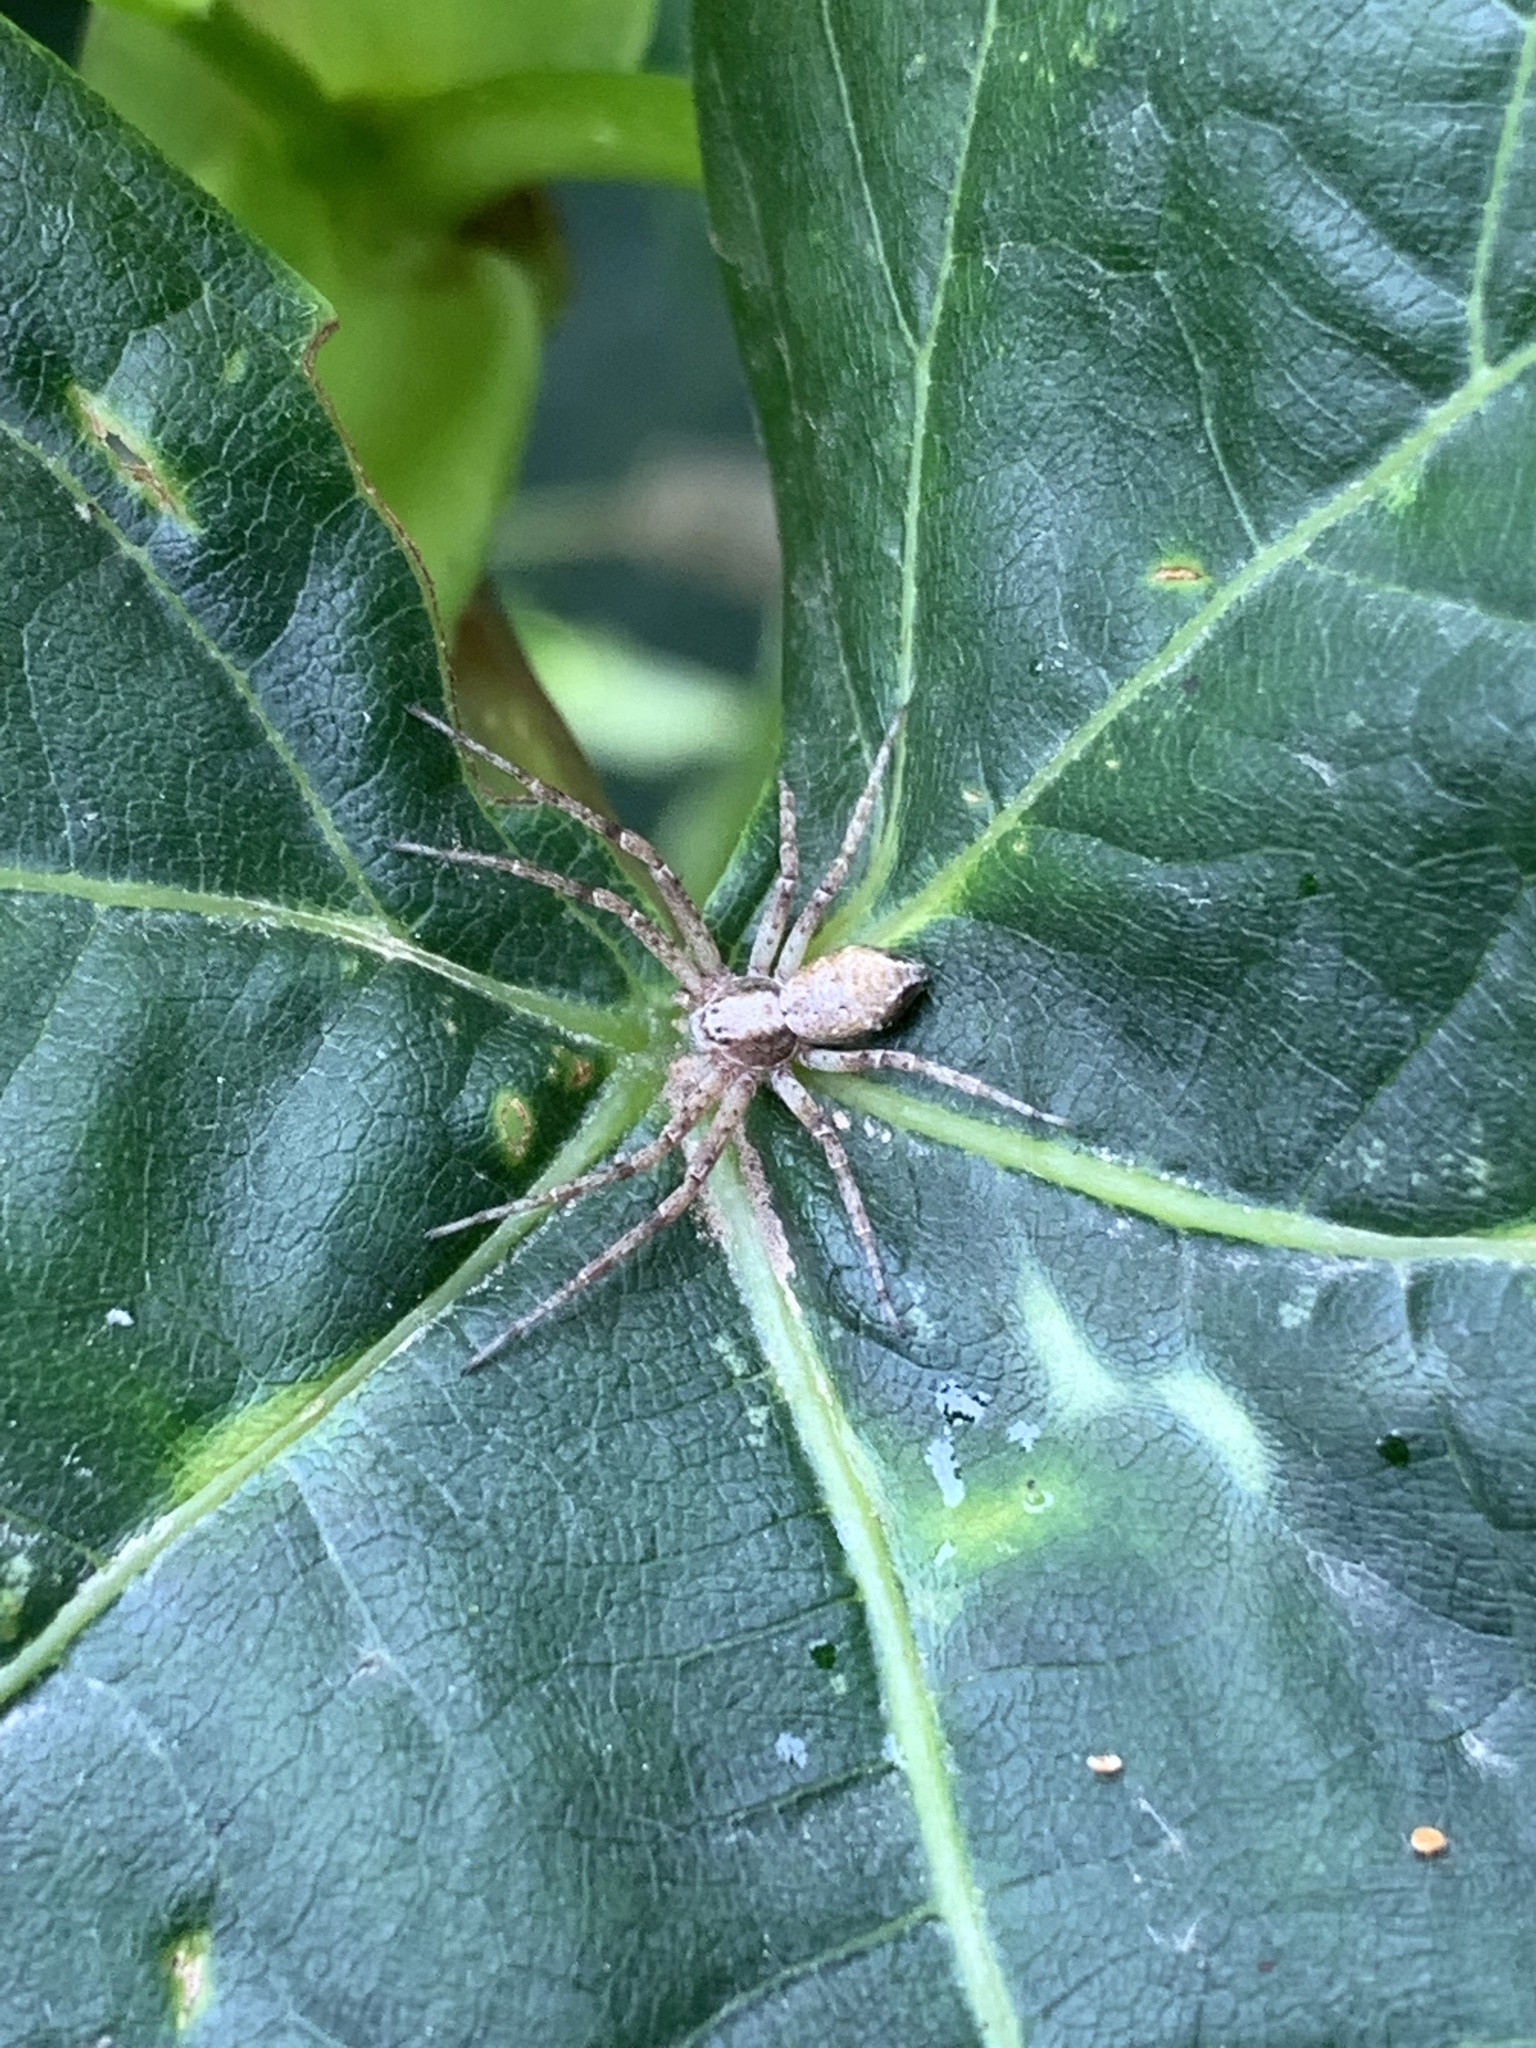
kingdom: Animalia
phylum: Arthropoda
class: Arachnida
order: Araneae
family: Philodromidae
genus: Philodromus
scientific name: Philodromus
